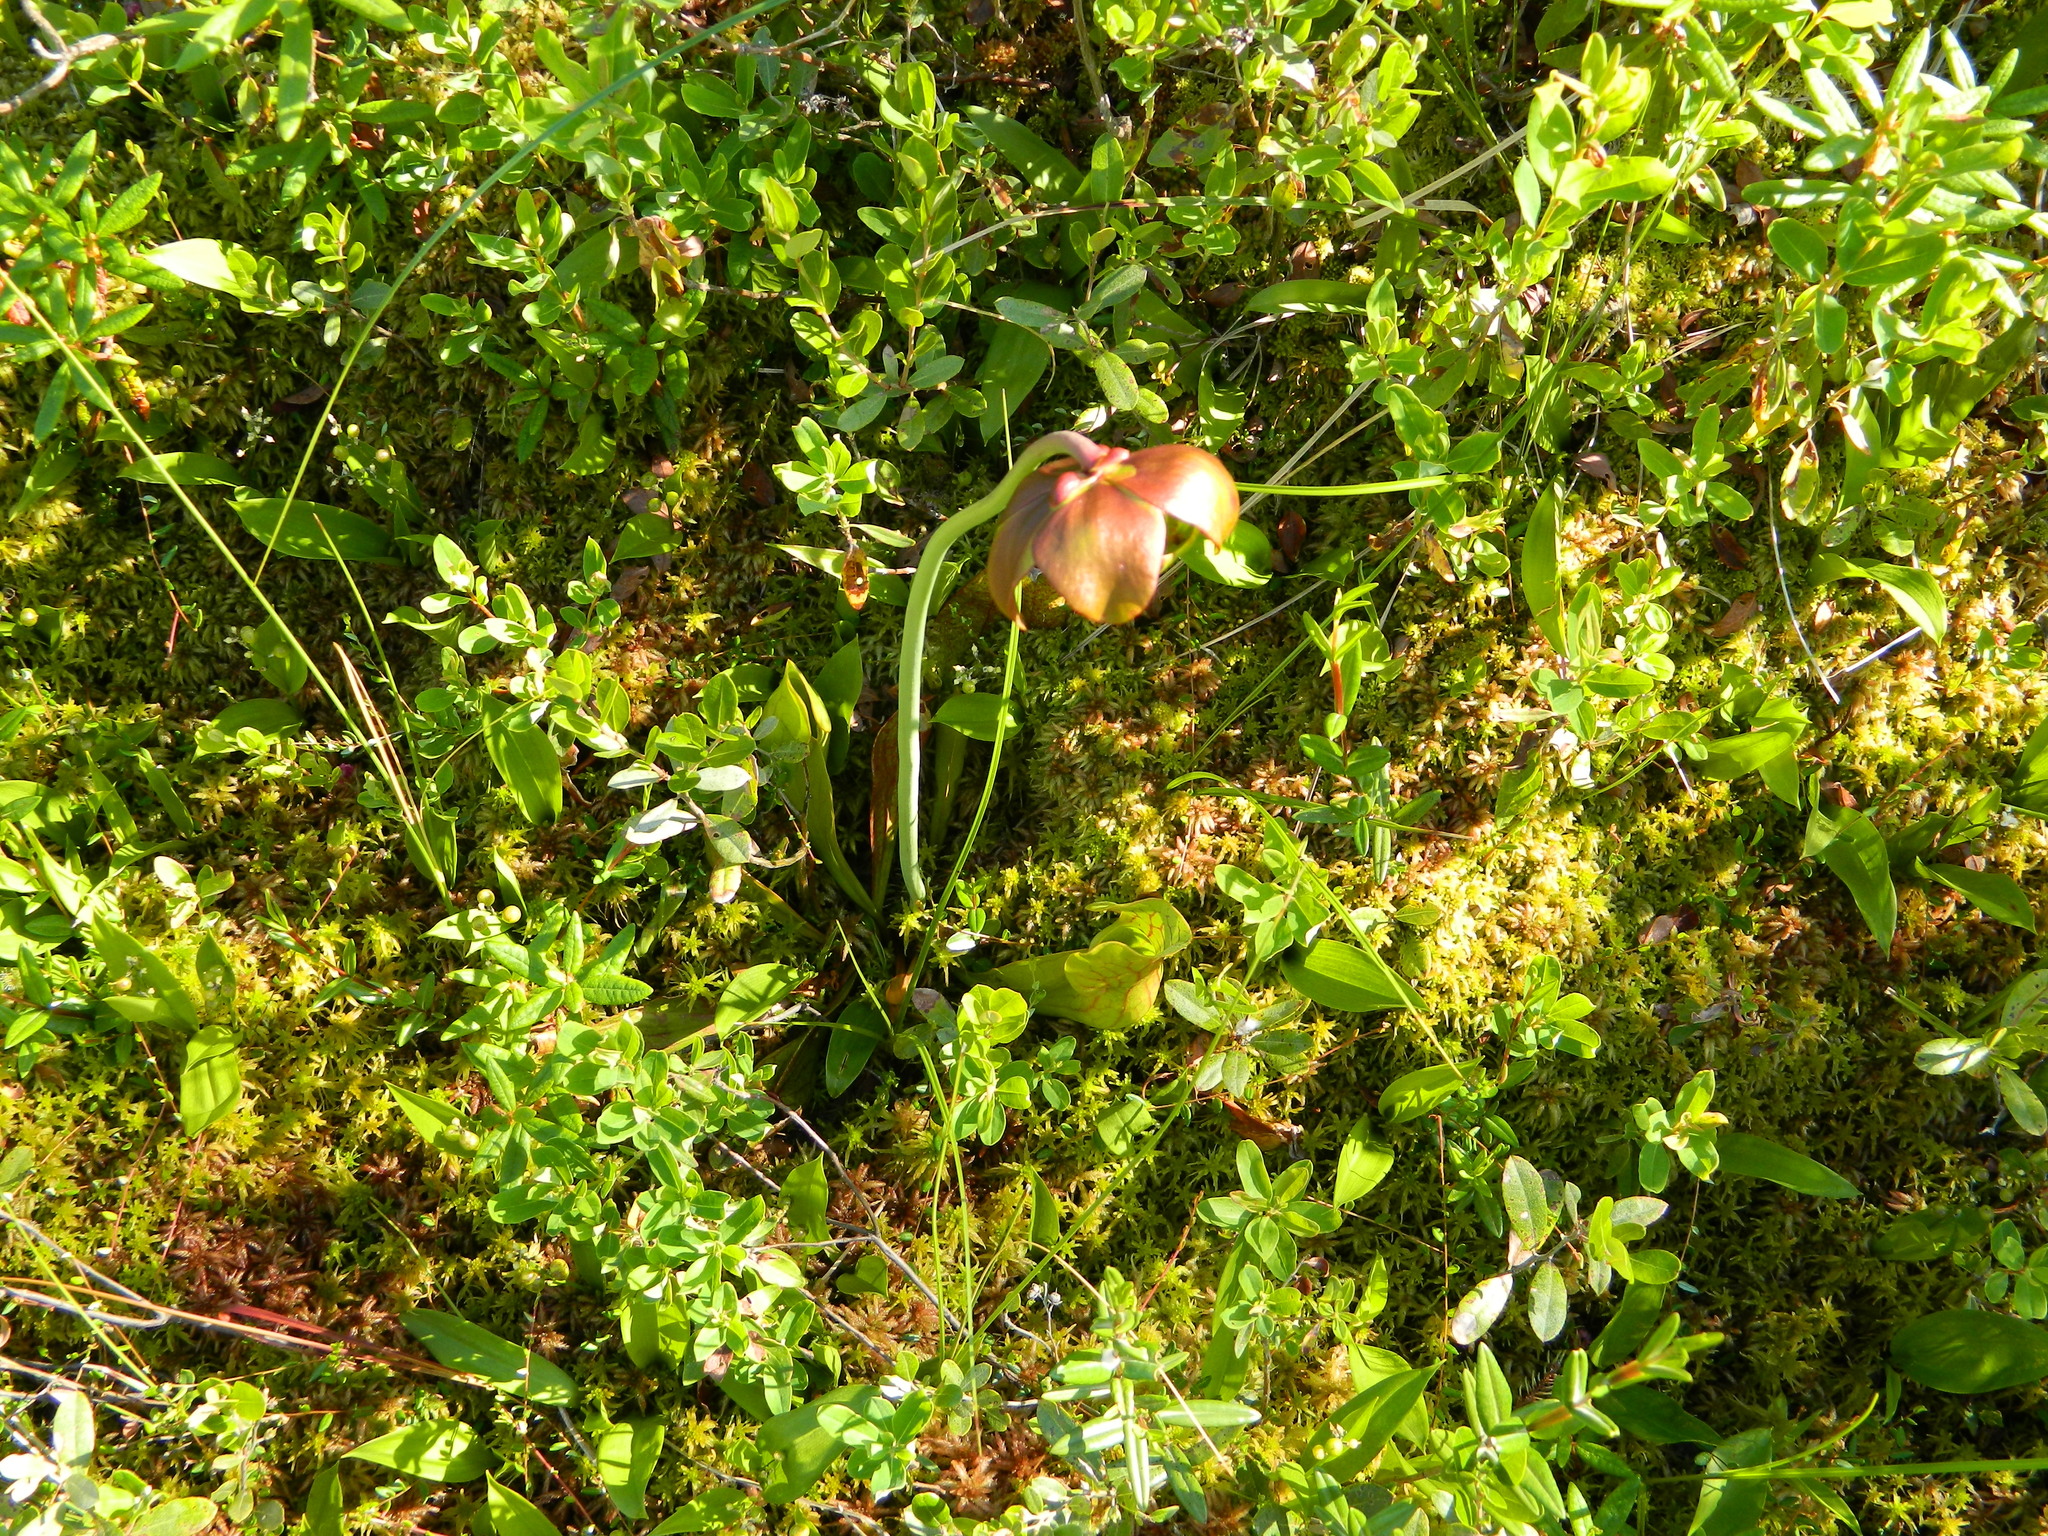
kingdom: Plantae
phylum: Tracheophyta
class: Magnoliopsida
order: Ericales
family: Sarraceniaceae
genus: Sarracenia
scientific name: Sarracenia purpurea
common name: Pitcherplant
